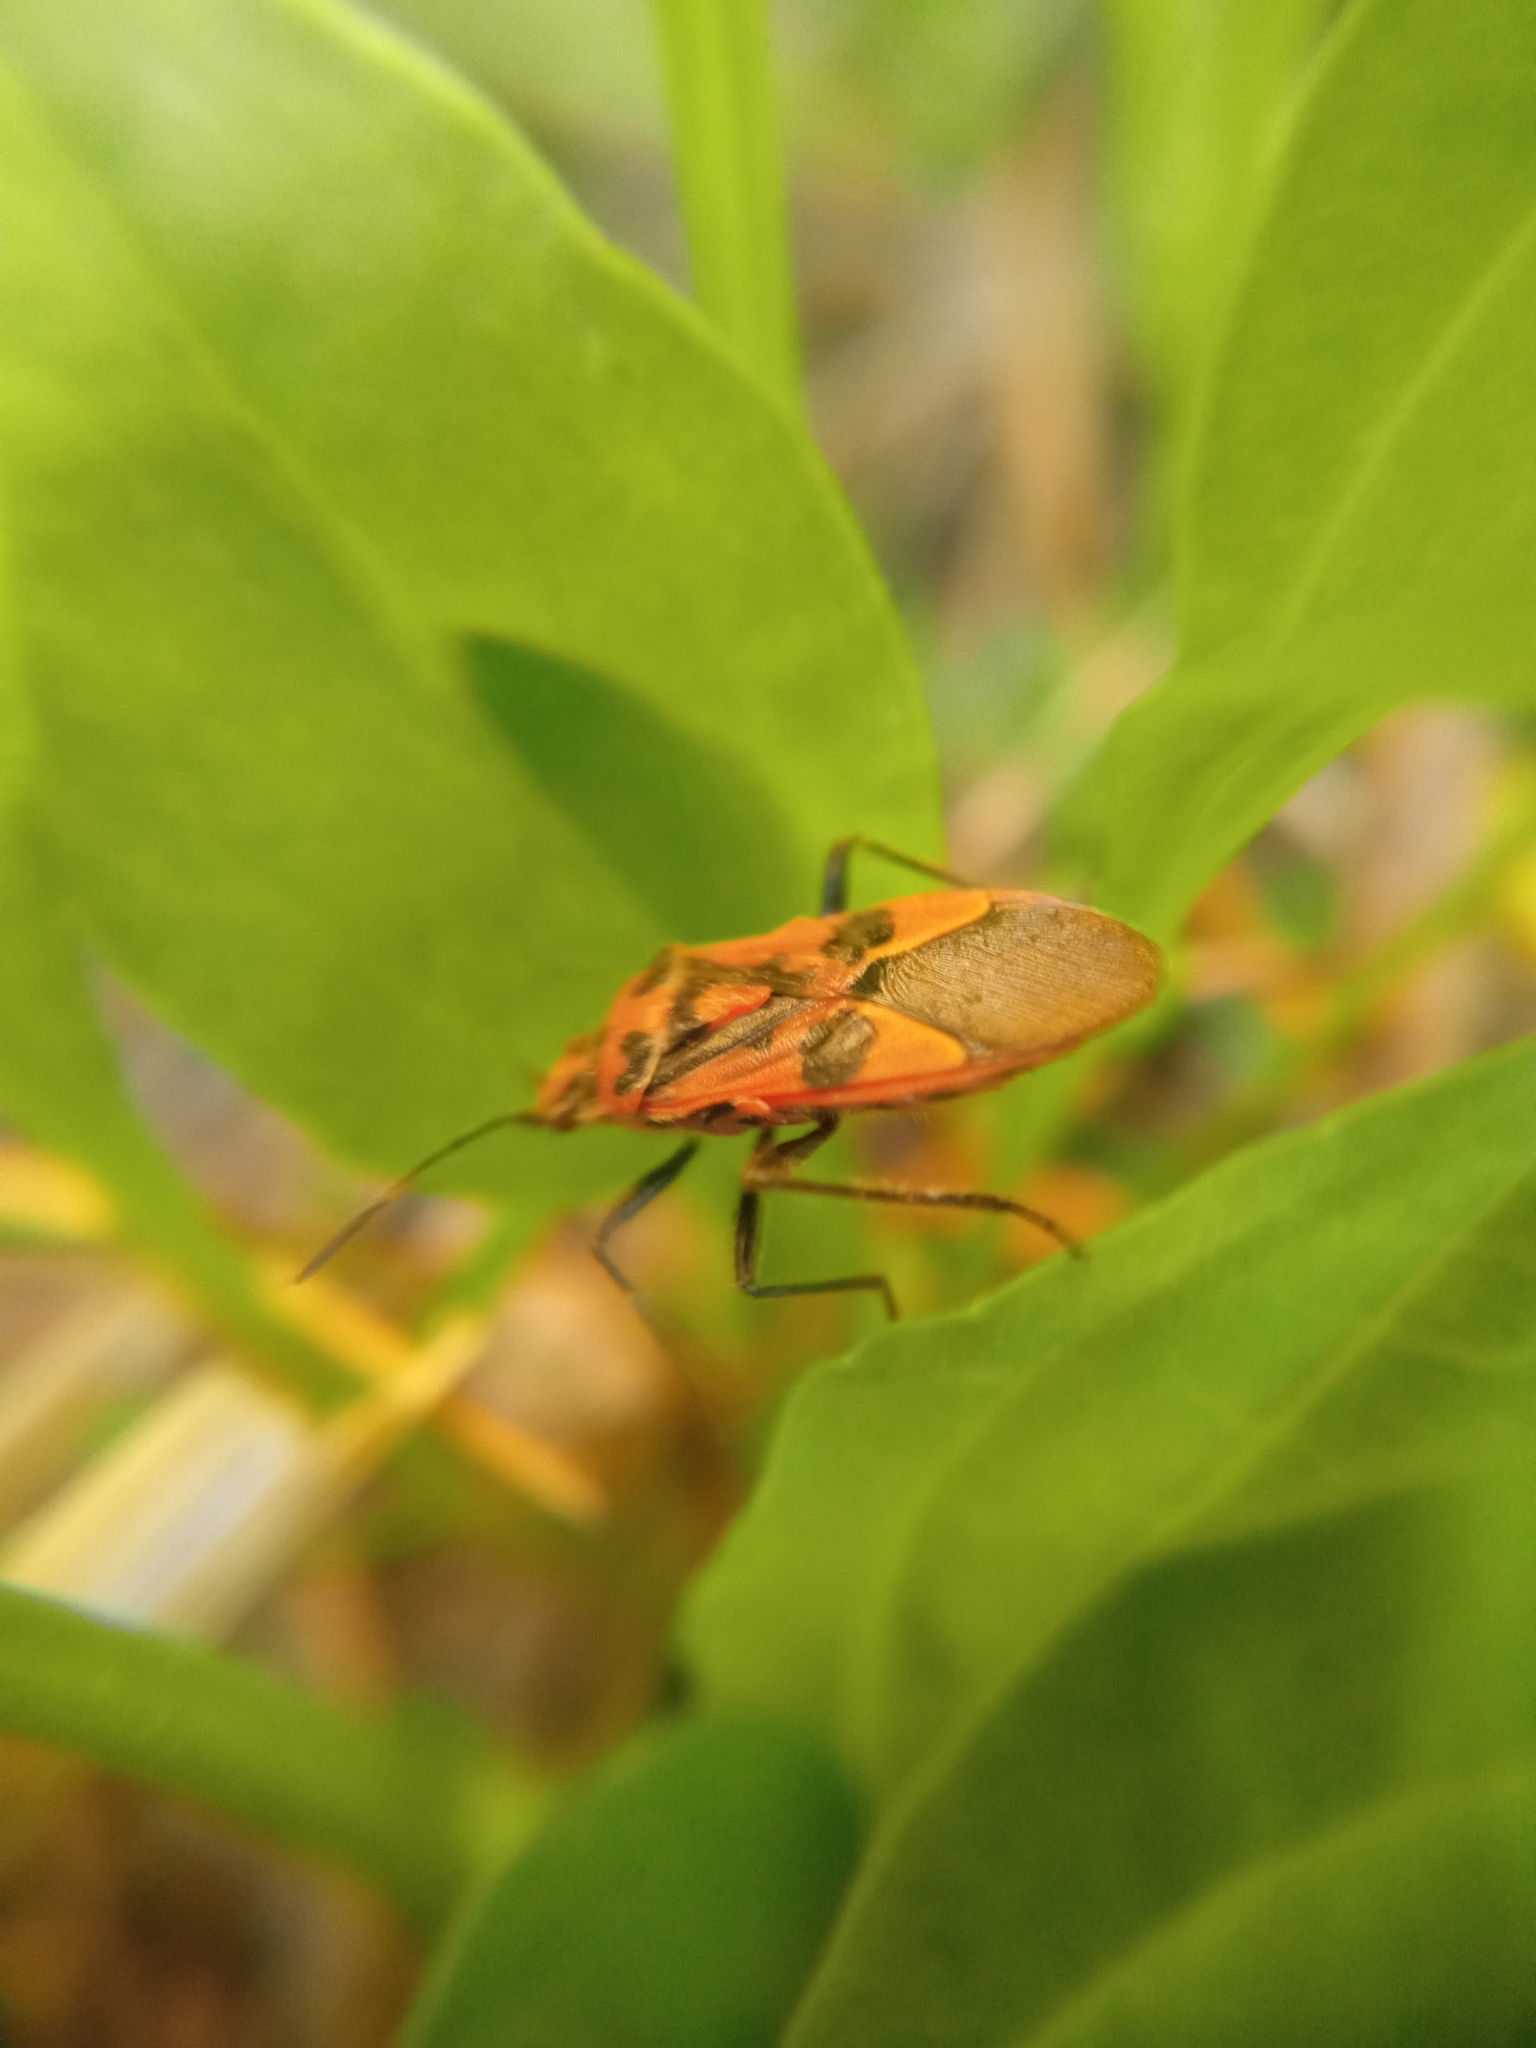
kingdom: Animalia
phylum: Arthropoda
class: Insecta
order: Hemiptera
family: Rhopalidae
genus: Corizus
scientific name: Corizus hyoscyami
